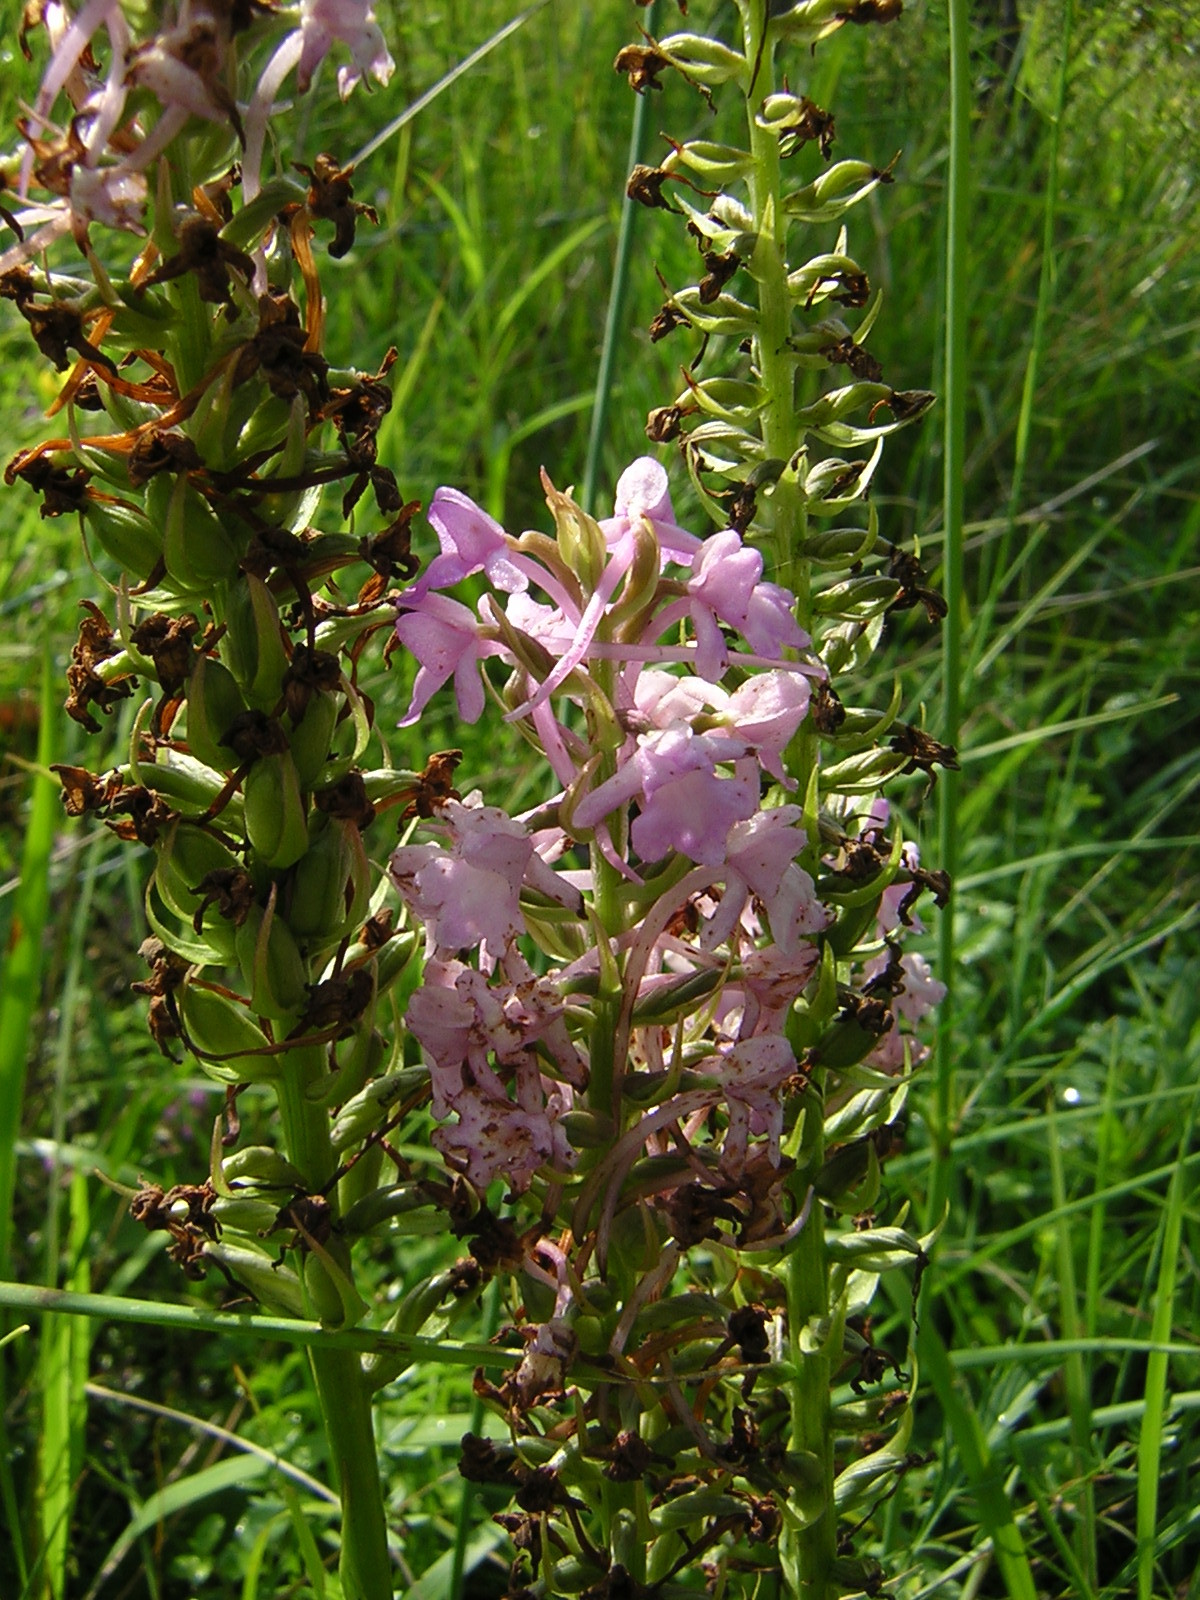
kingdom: Plantae
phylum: Tracheophyta
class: Liliopsida
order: Asparagales
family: Orchidaceae
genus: Gymnadenia
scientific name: Gymnadenia conopsea
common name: Fragrant orchid
